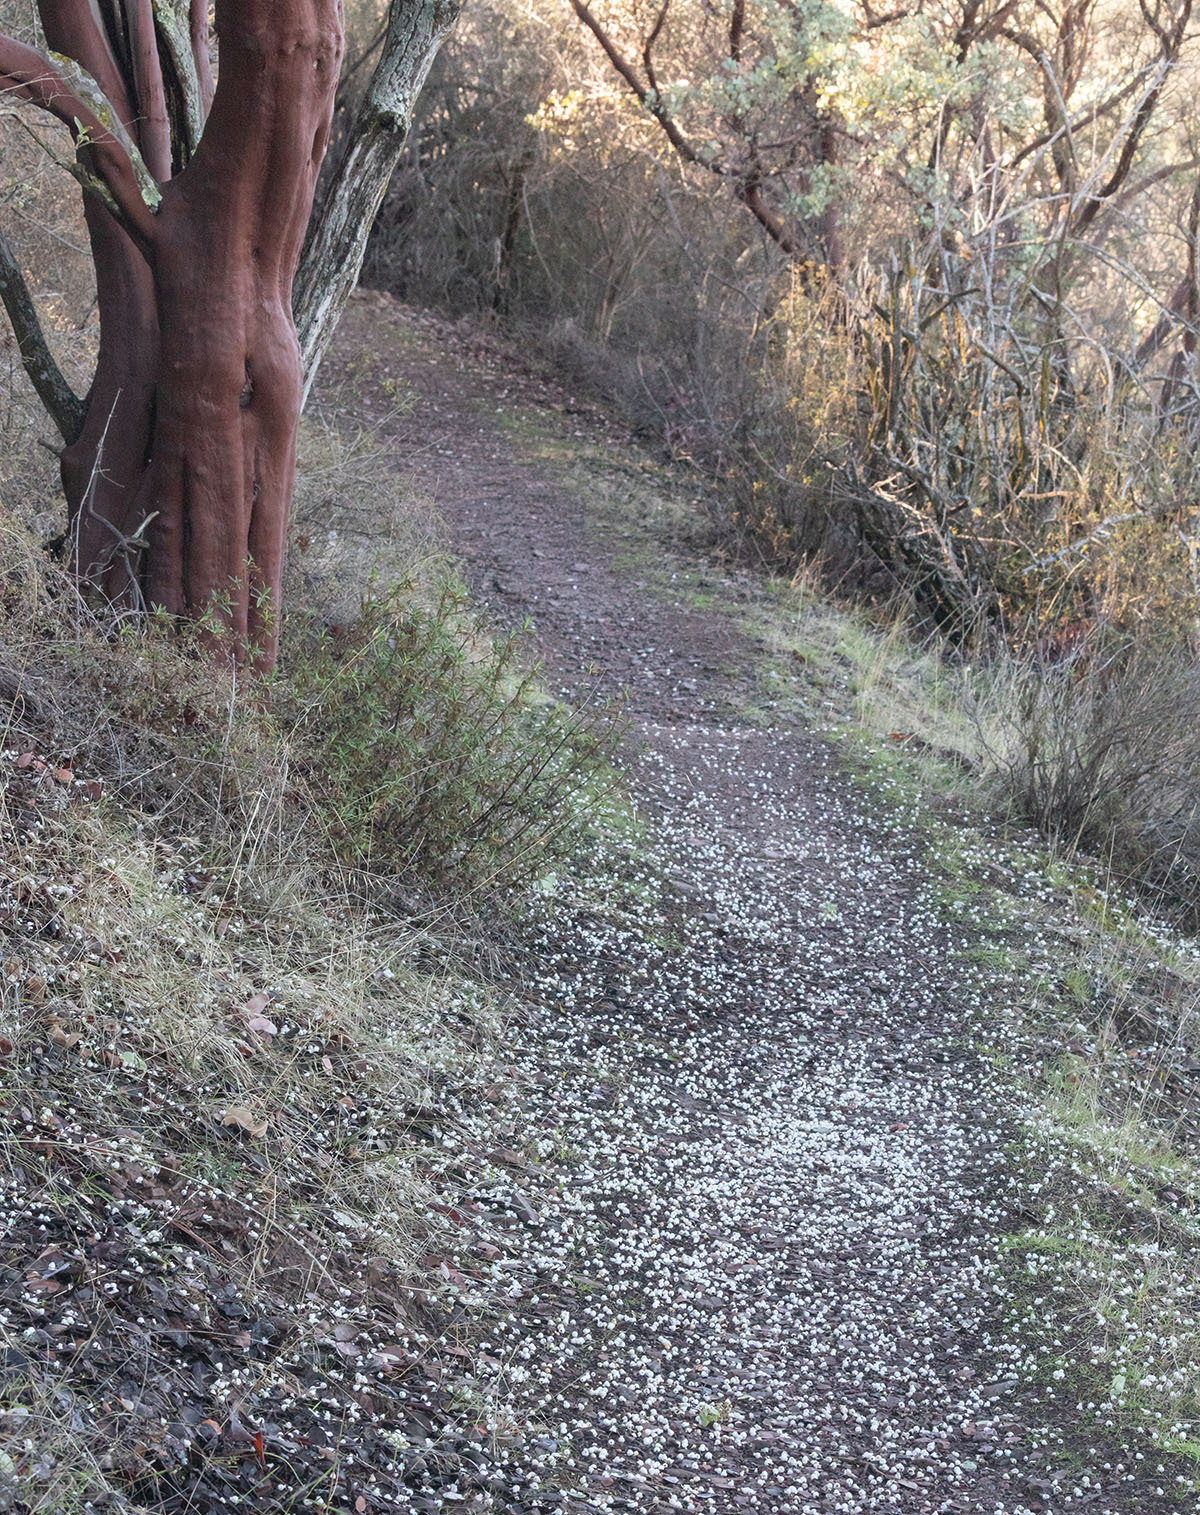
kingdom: Plantae
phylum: Tracheophyta
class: Magnoliopsida
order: Ericales
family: Ericaceae
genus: Arctostaphylos
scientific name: Arctostaphylos glauca
